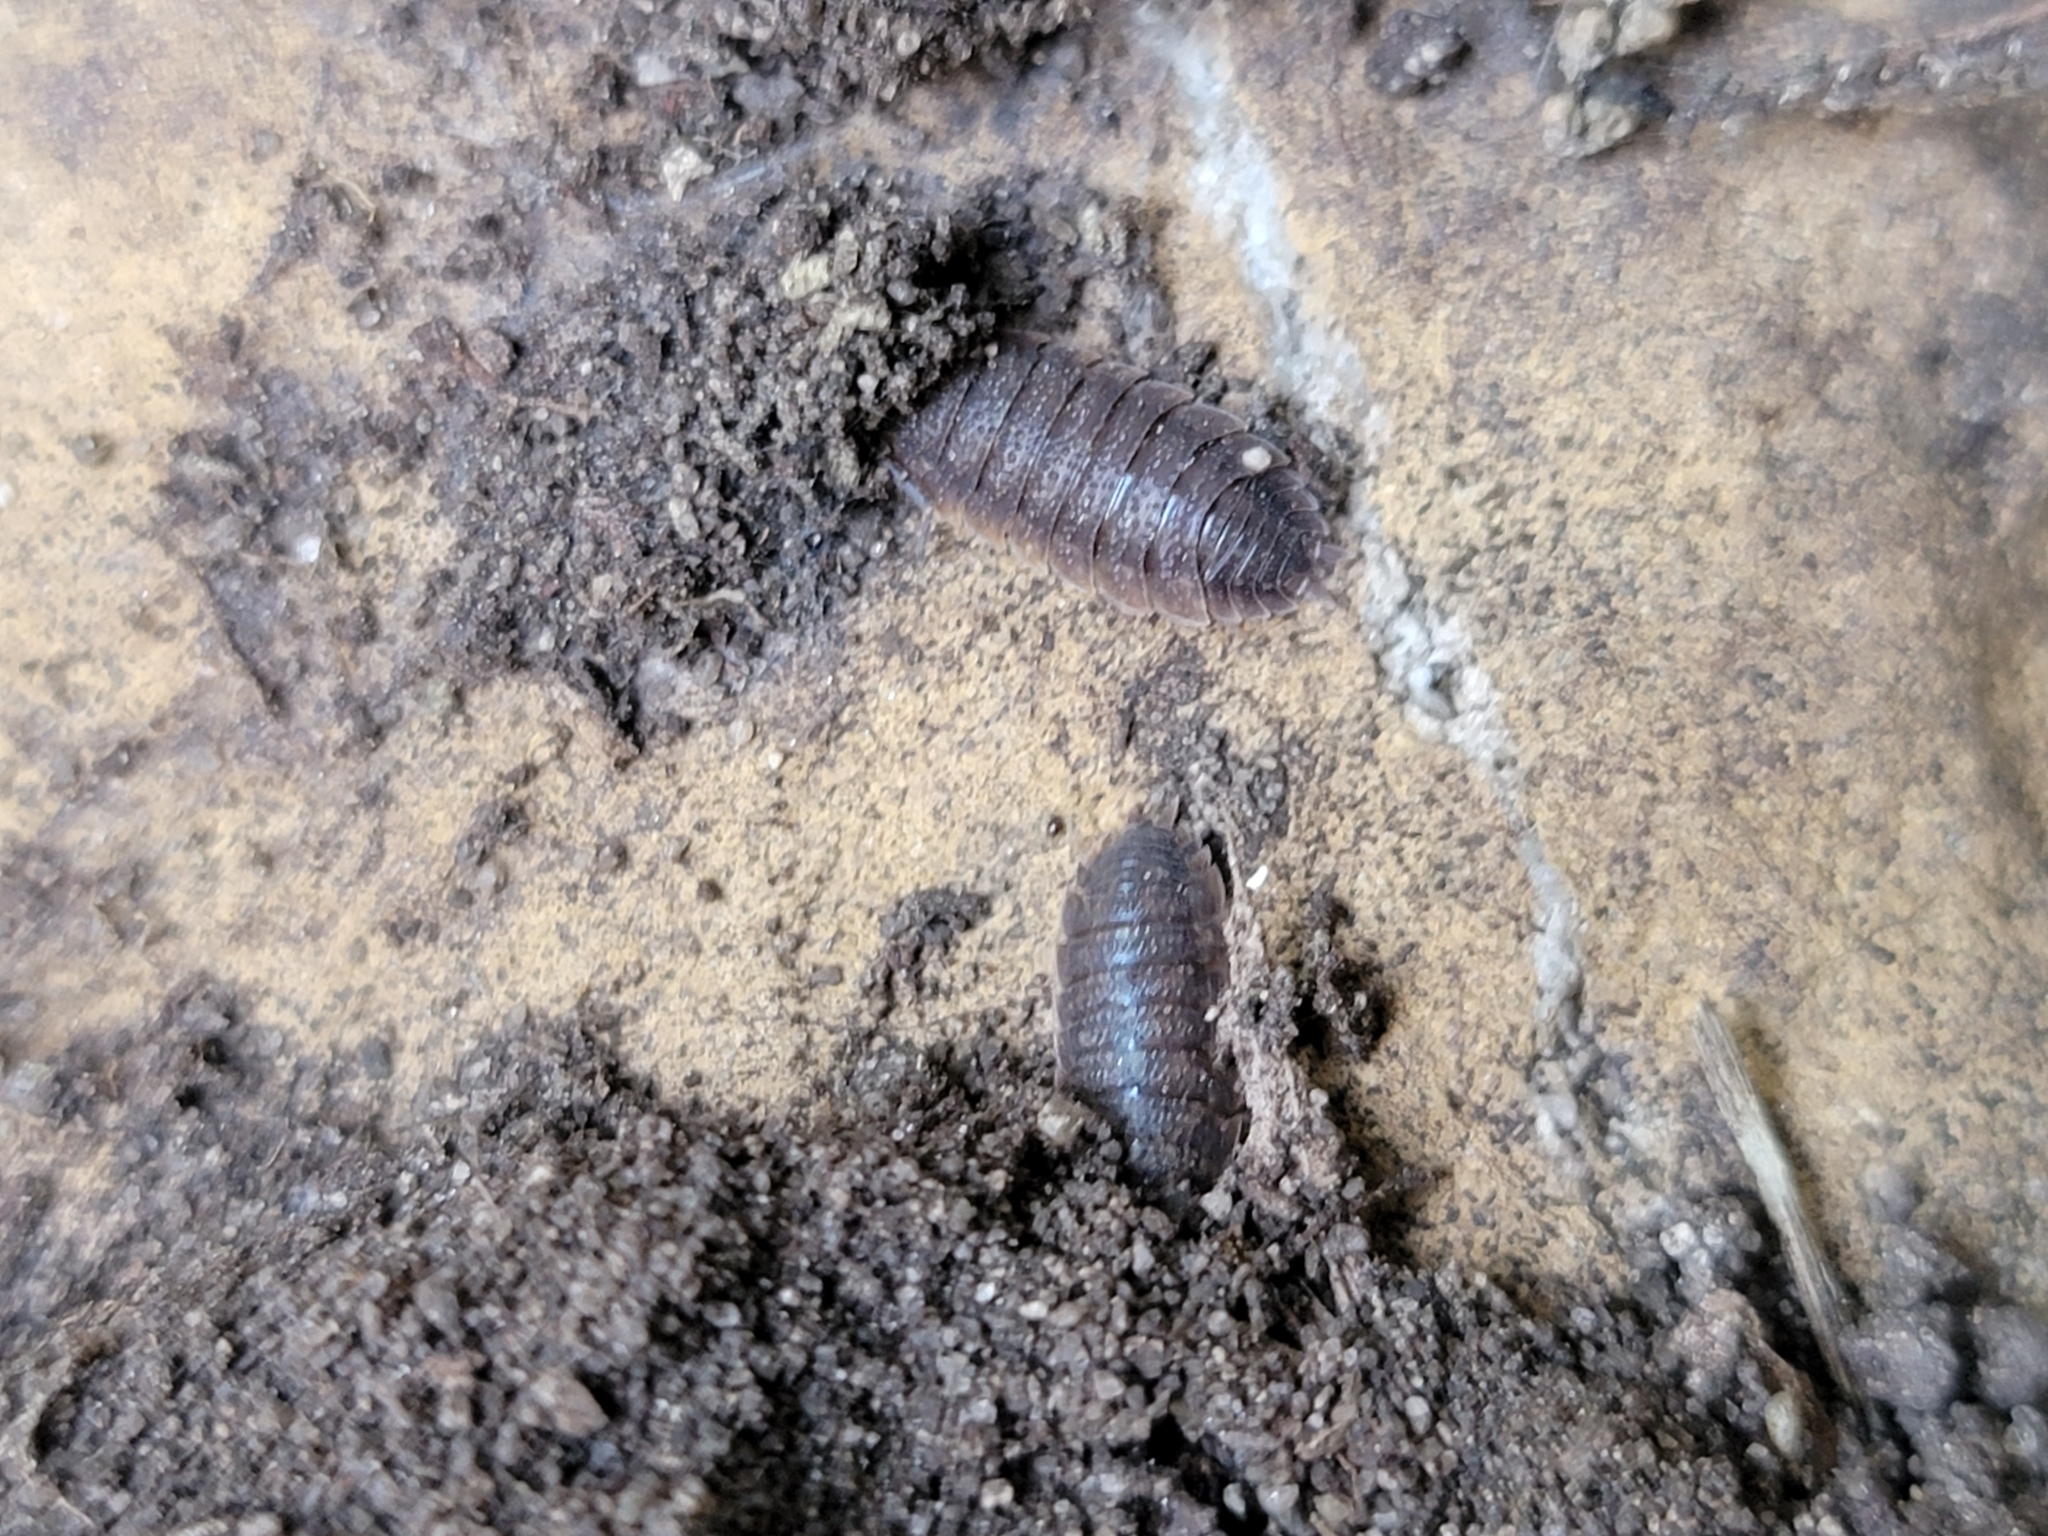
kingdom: Animalia
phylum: Arthropoda
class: Malacostraca
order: Isopoda
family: Porcellionidae
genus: Porcellio
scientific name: Porcellio scaber
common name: Common rough woodlouse
